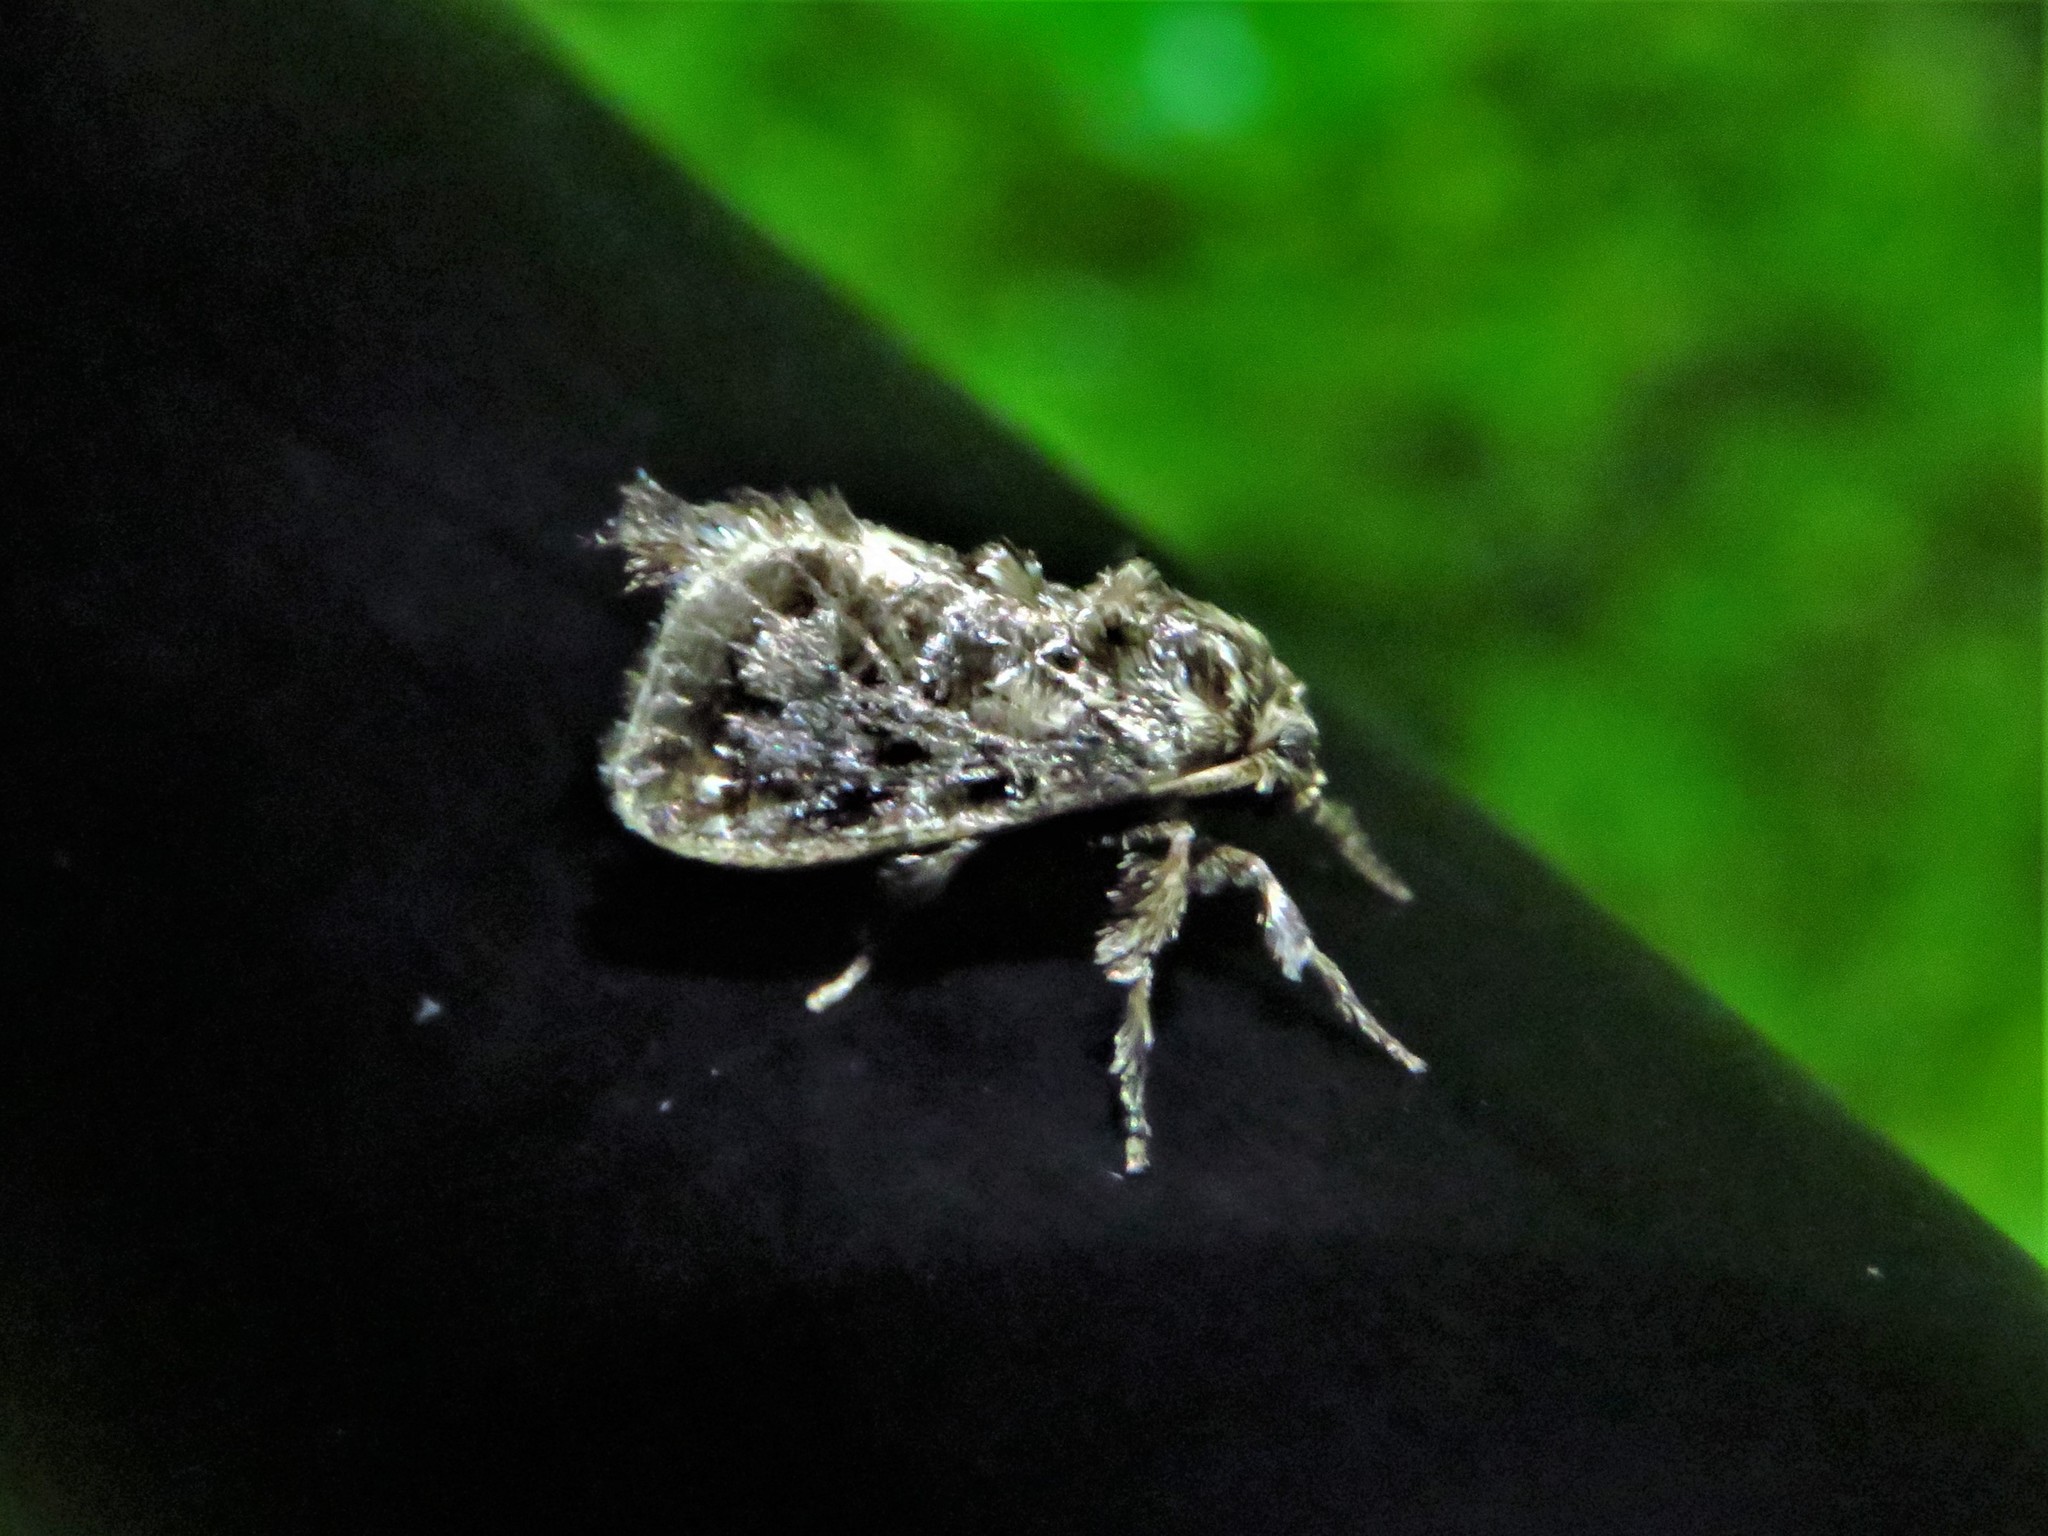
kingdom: Animalia
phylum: Arthropoda
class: Insecta
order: Lepidoptera
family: Limacodidae
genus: Euclea
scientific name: Euclea plugma
